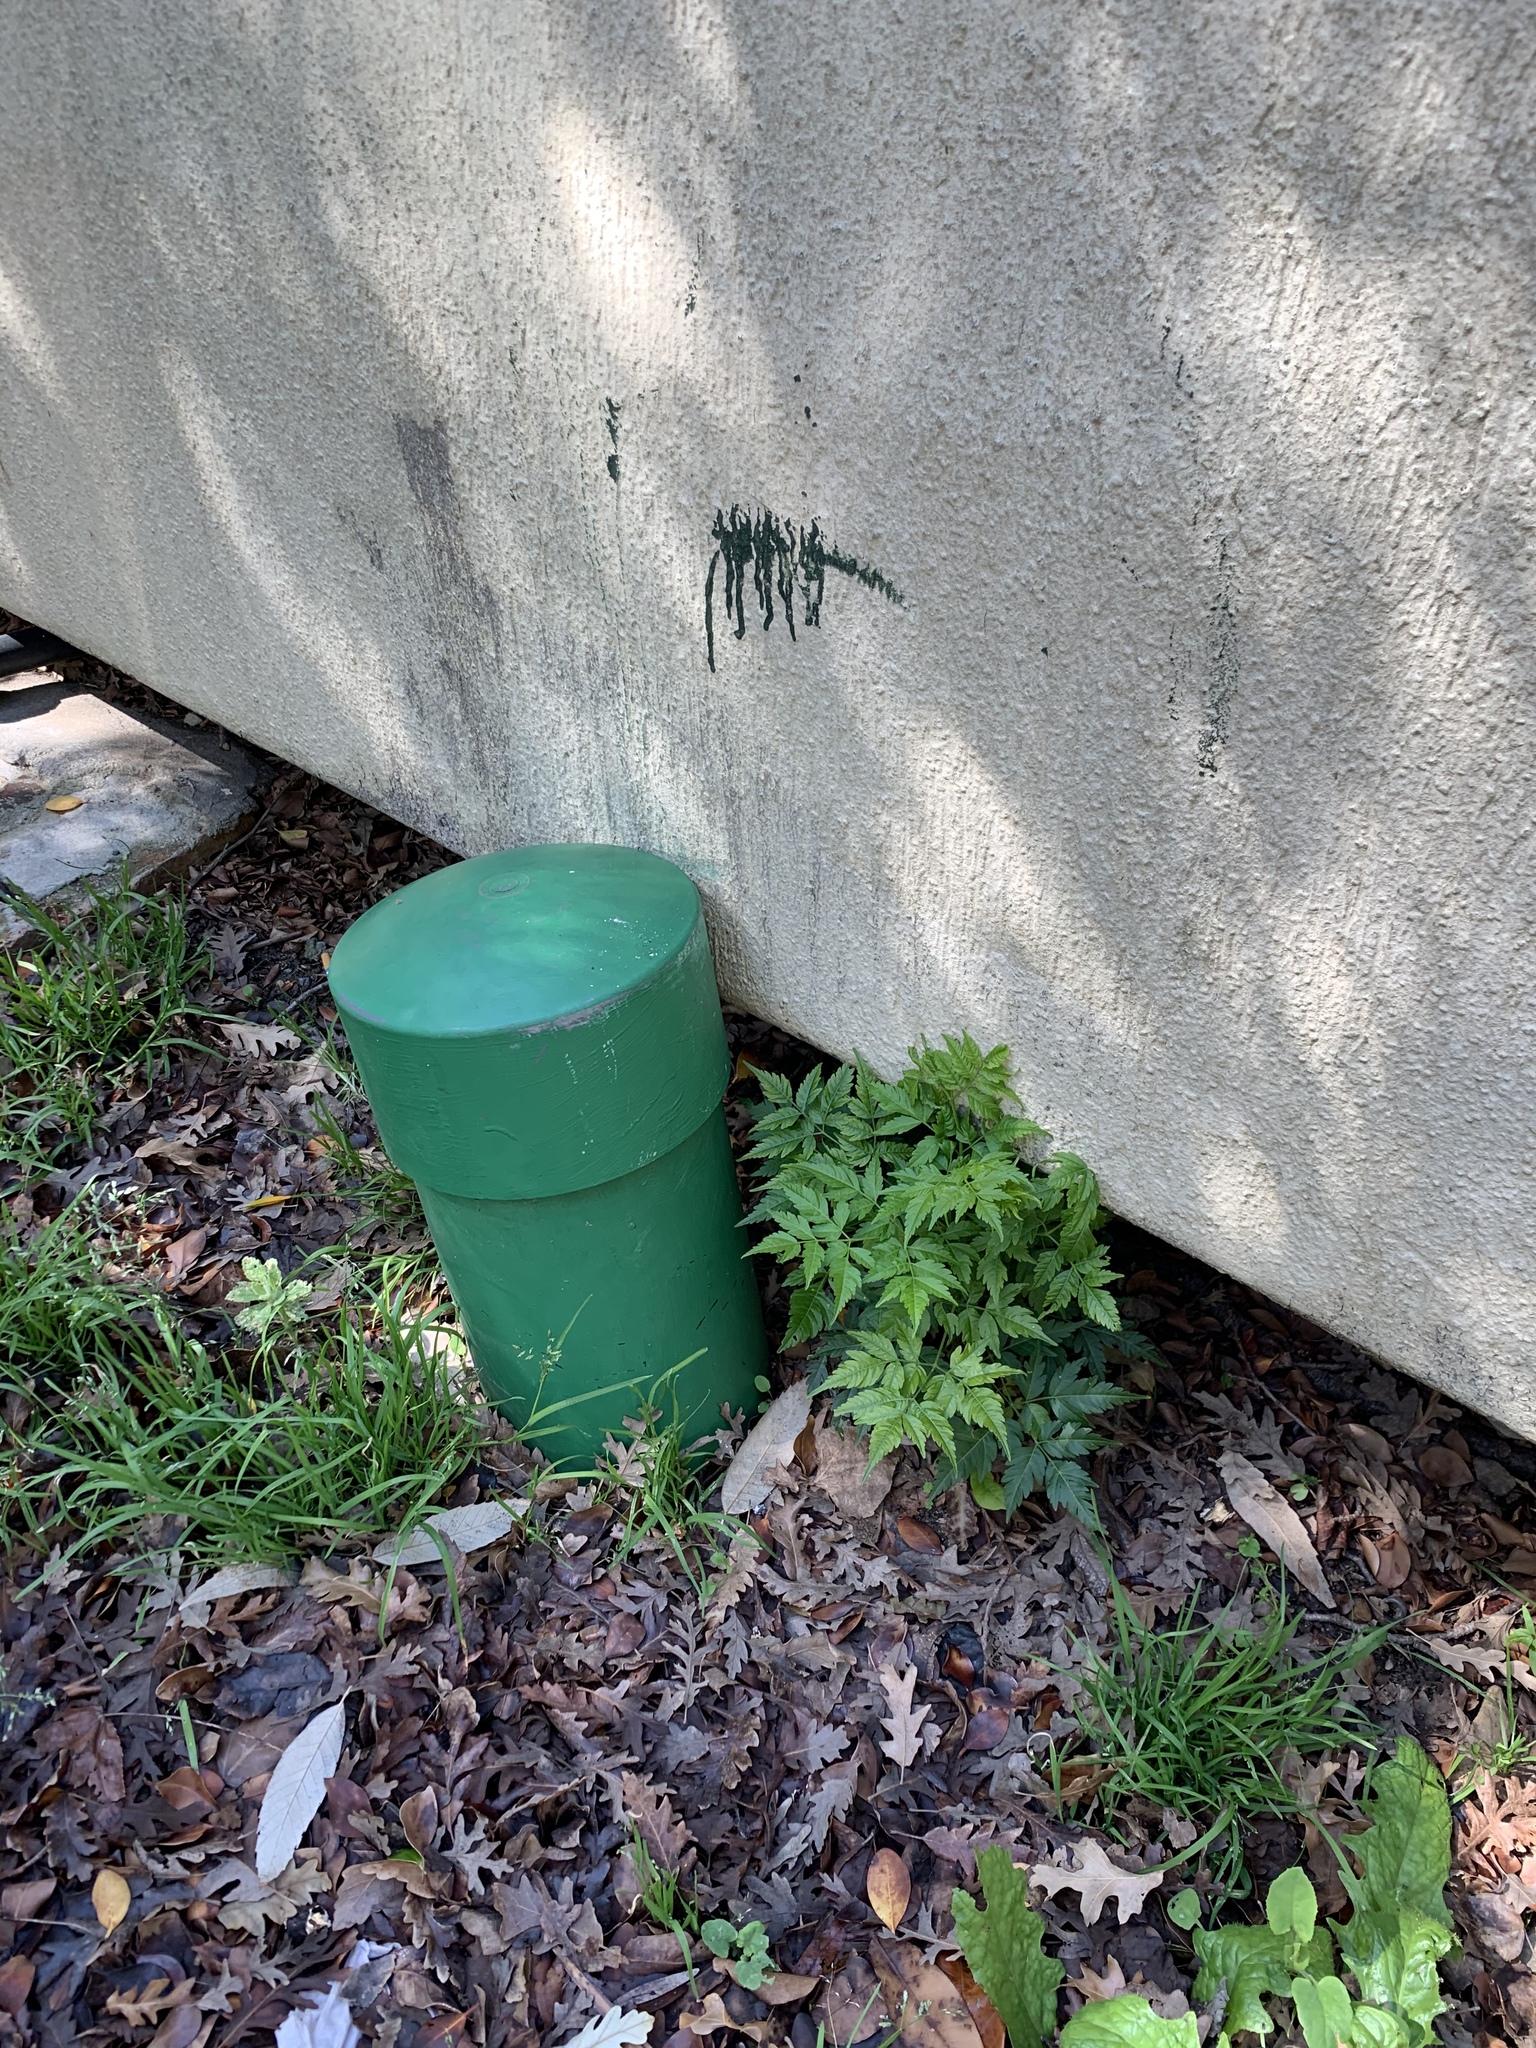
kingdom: Plantae
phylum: Tracheophyta
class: Magnoliopsida
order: Sapindales
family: Meliaceae
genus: Melia
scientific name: Melia azedarach
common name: Chinaberrytree
